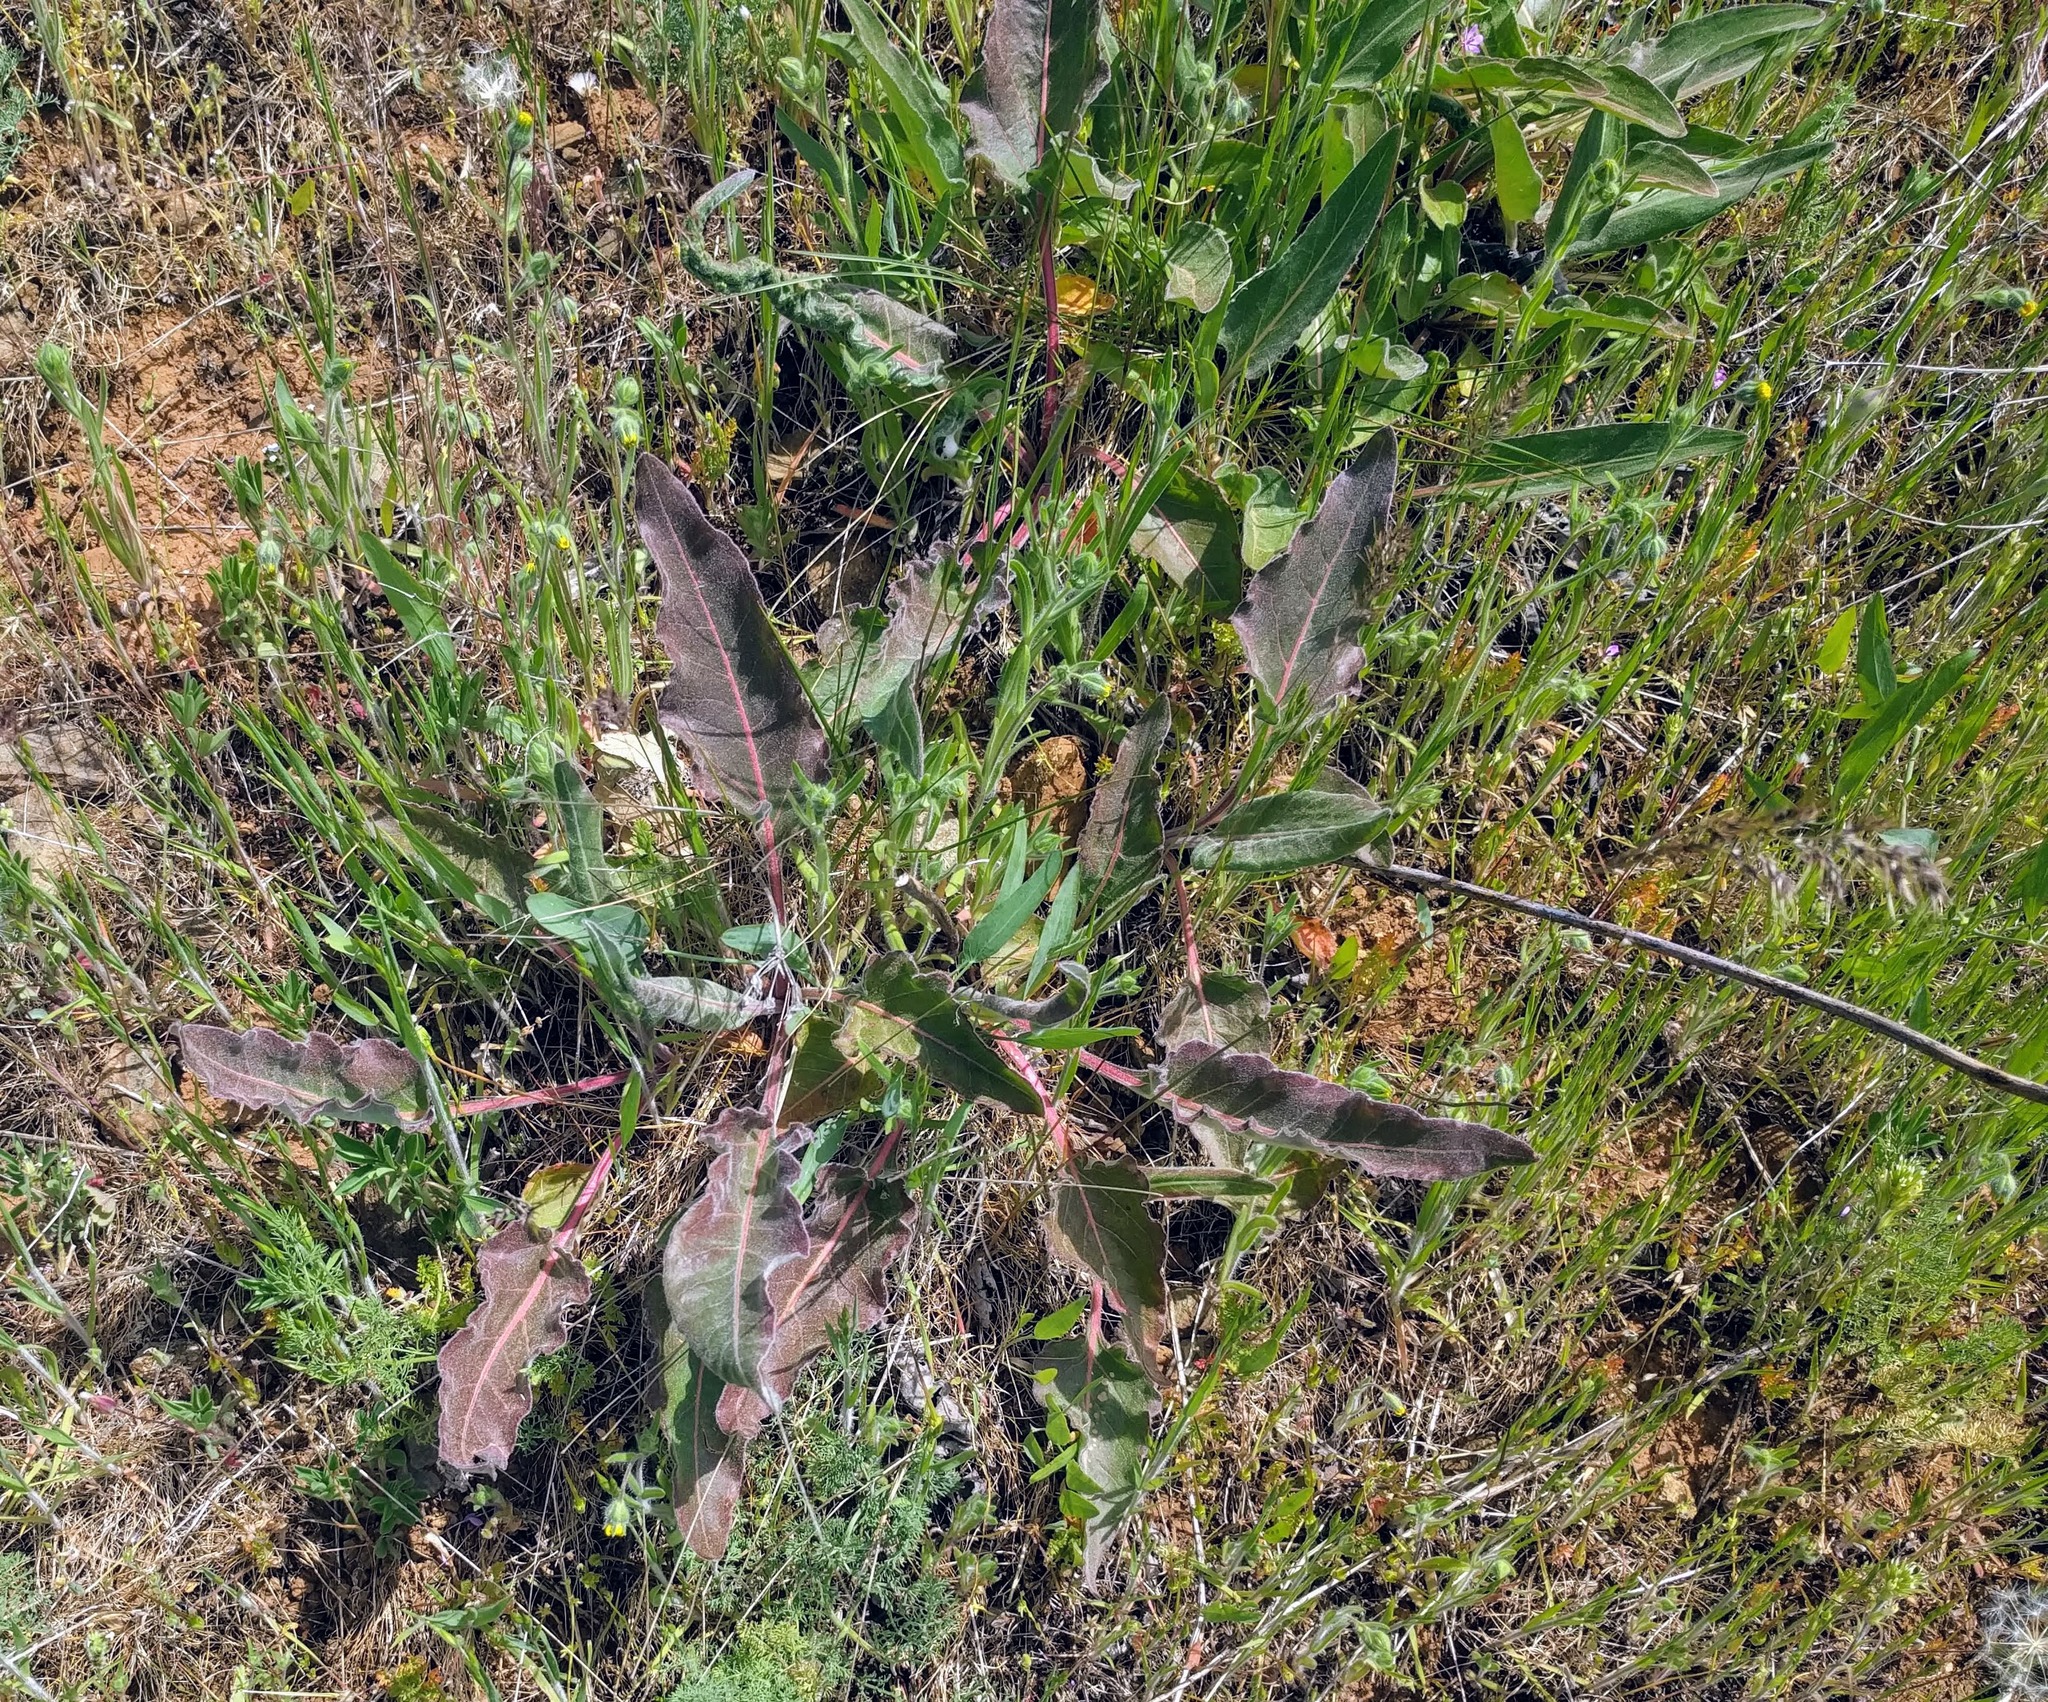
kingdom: Plantae
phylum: Tracheophyta
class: Magnoliopsida
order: Caryophyllales
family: Polygonaceae
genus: Eriogonum
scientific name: Eriogonum elatum
